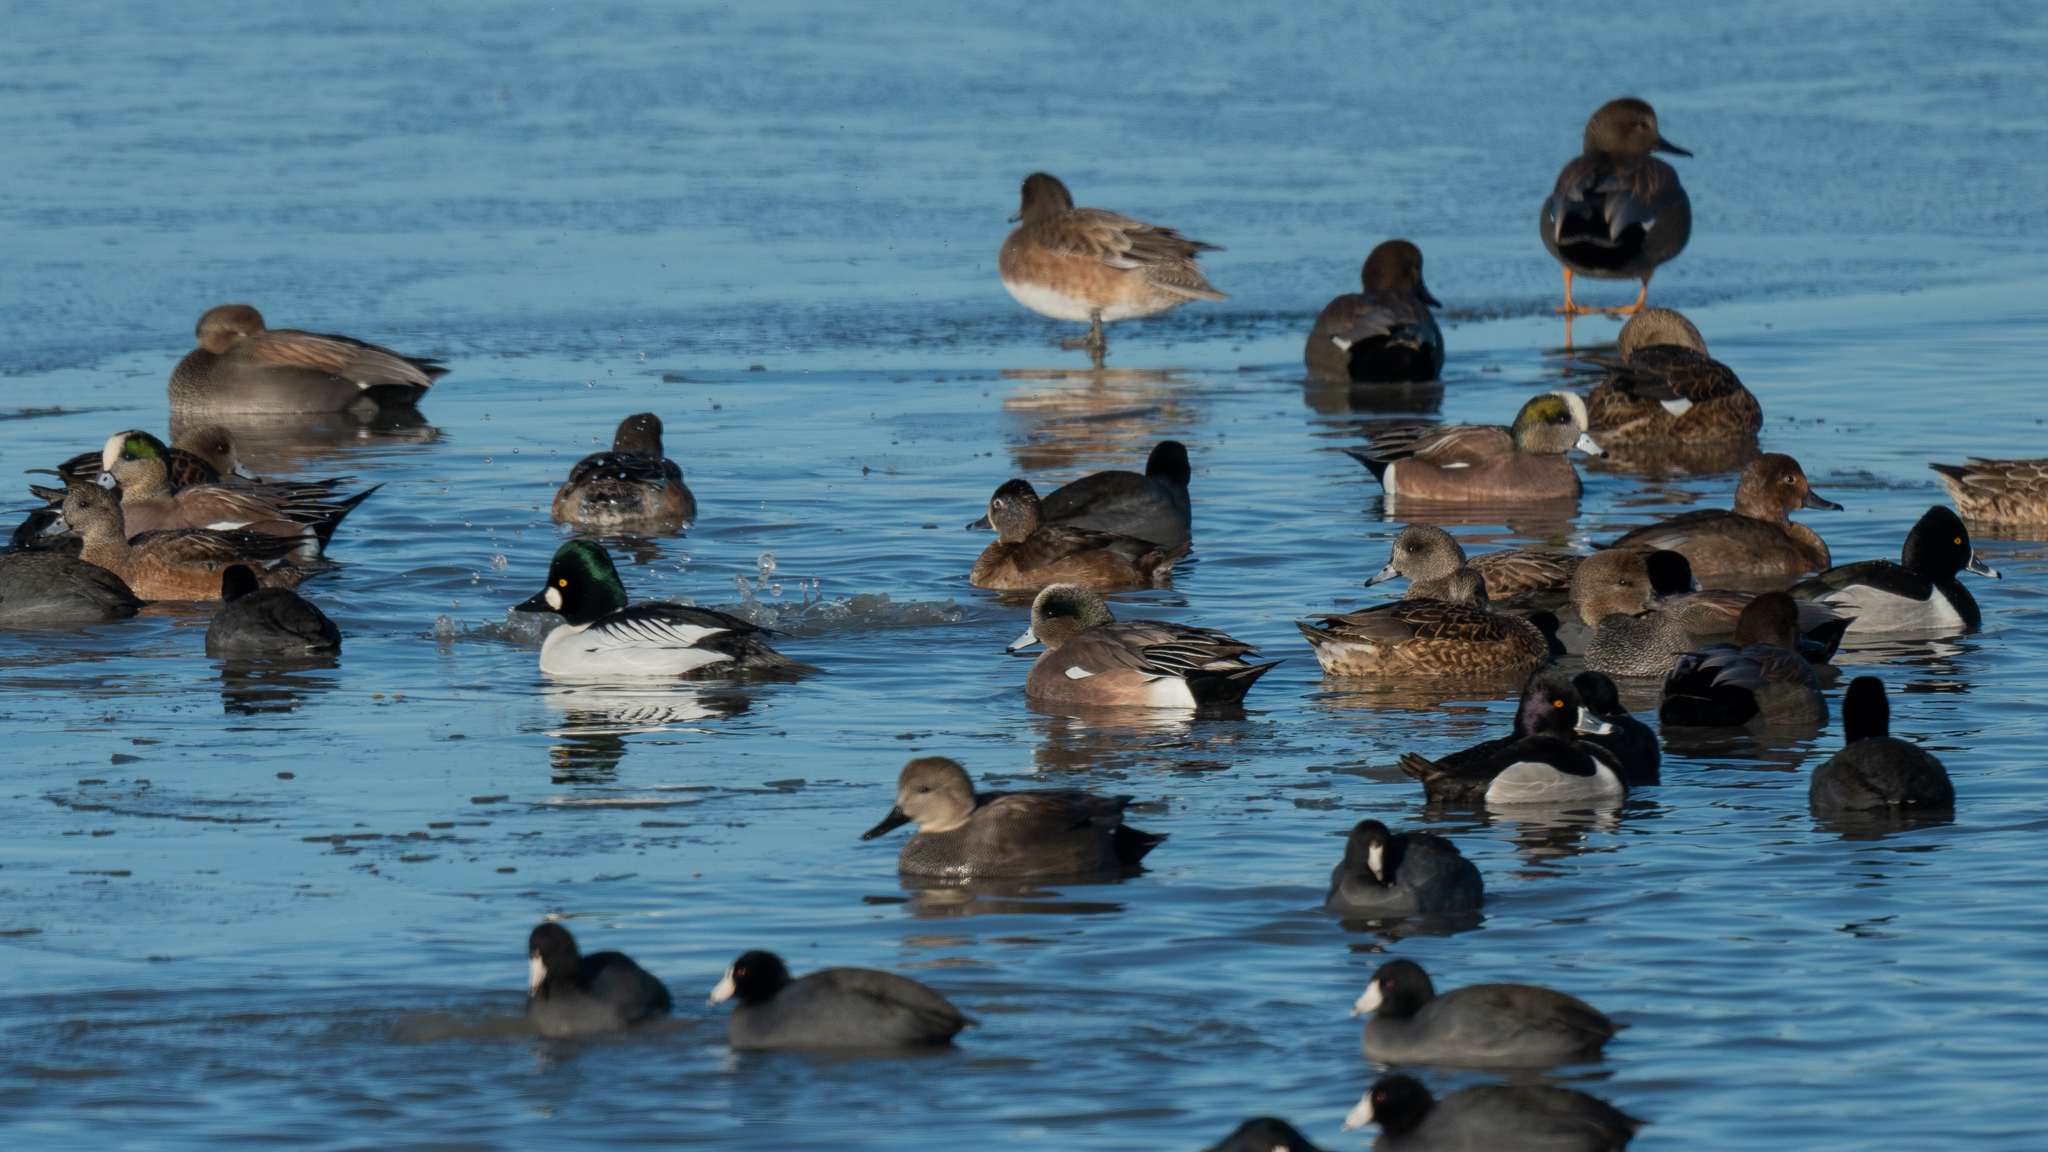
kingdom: Animalia
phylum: Chordata
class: Aves
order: Anseriformes
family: Anatidae
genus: Mareca
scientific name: Mareca americana
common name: American wigeon
